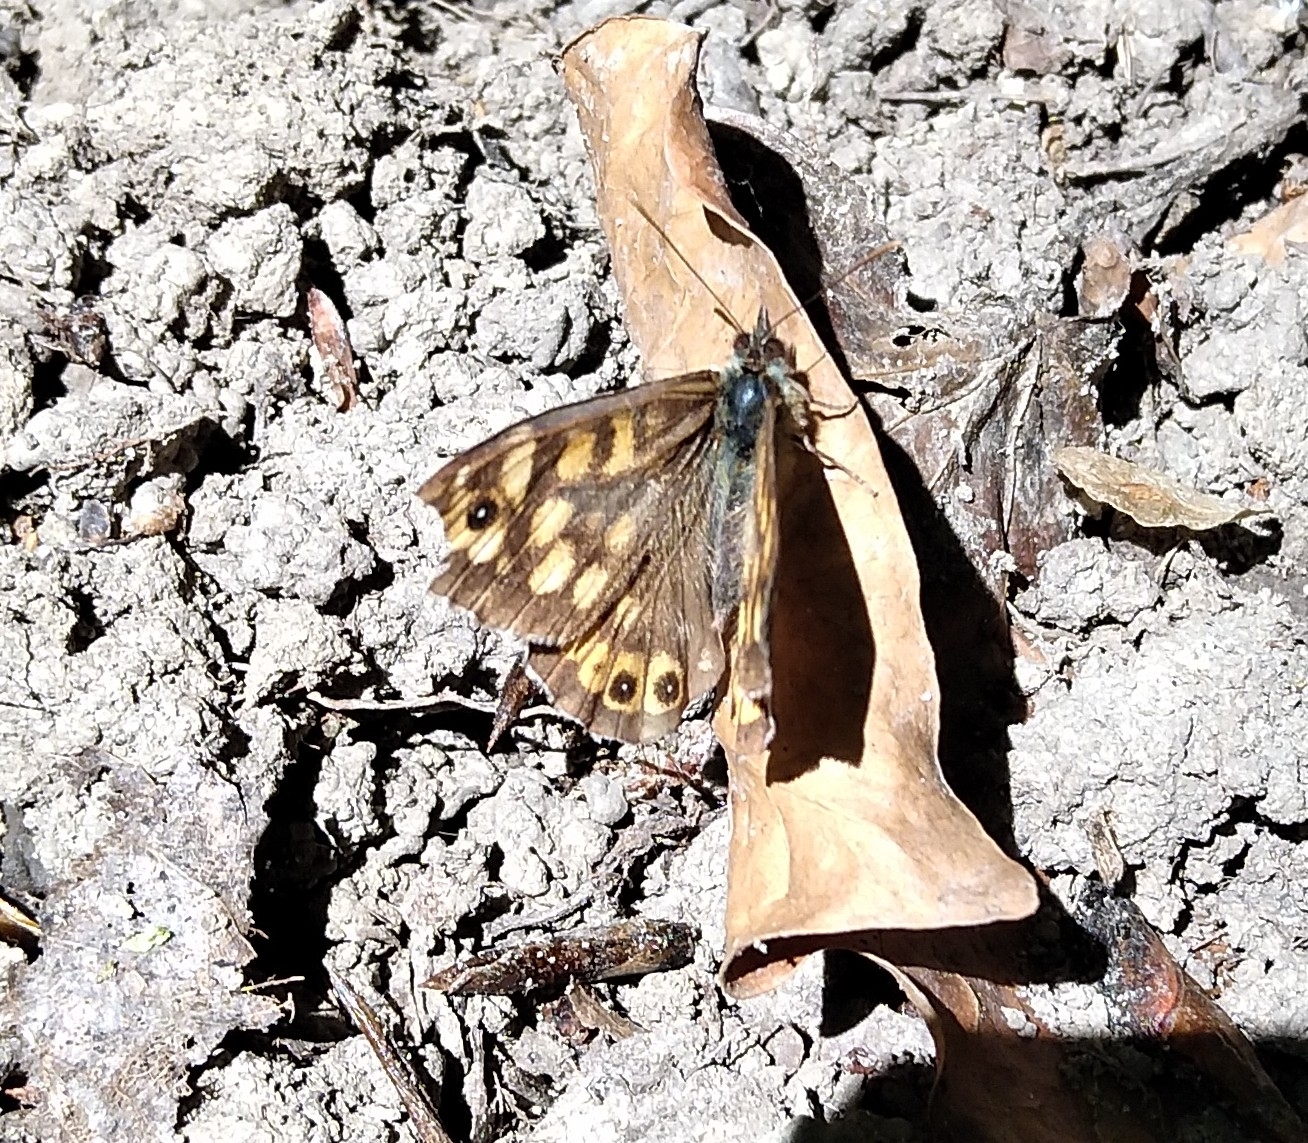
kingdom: Animalia
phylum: Arthropoda
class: Insecta
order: Lepidoptera
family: Nymphalidae
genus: Pararge
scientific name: Pararge aegeria
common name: Speckled wood
